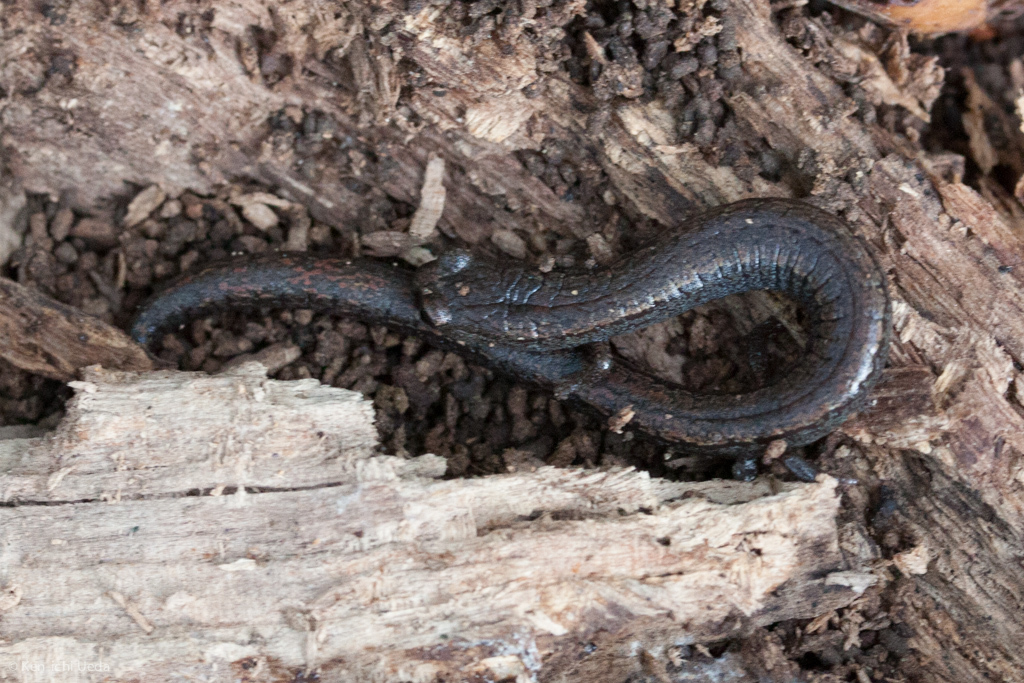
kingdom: Animalia
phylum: Chordata
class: Amphibia
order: Caudata
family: Plethodontidae
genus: Batrachoseps
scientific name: Batrachoseps attenuatus
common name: California slender salamander
